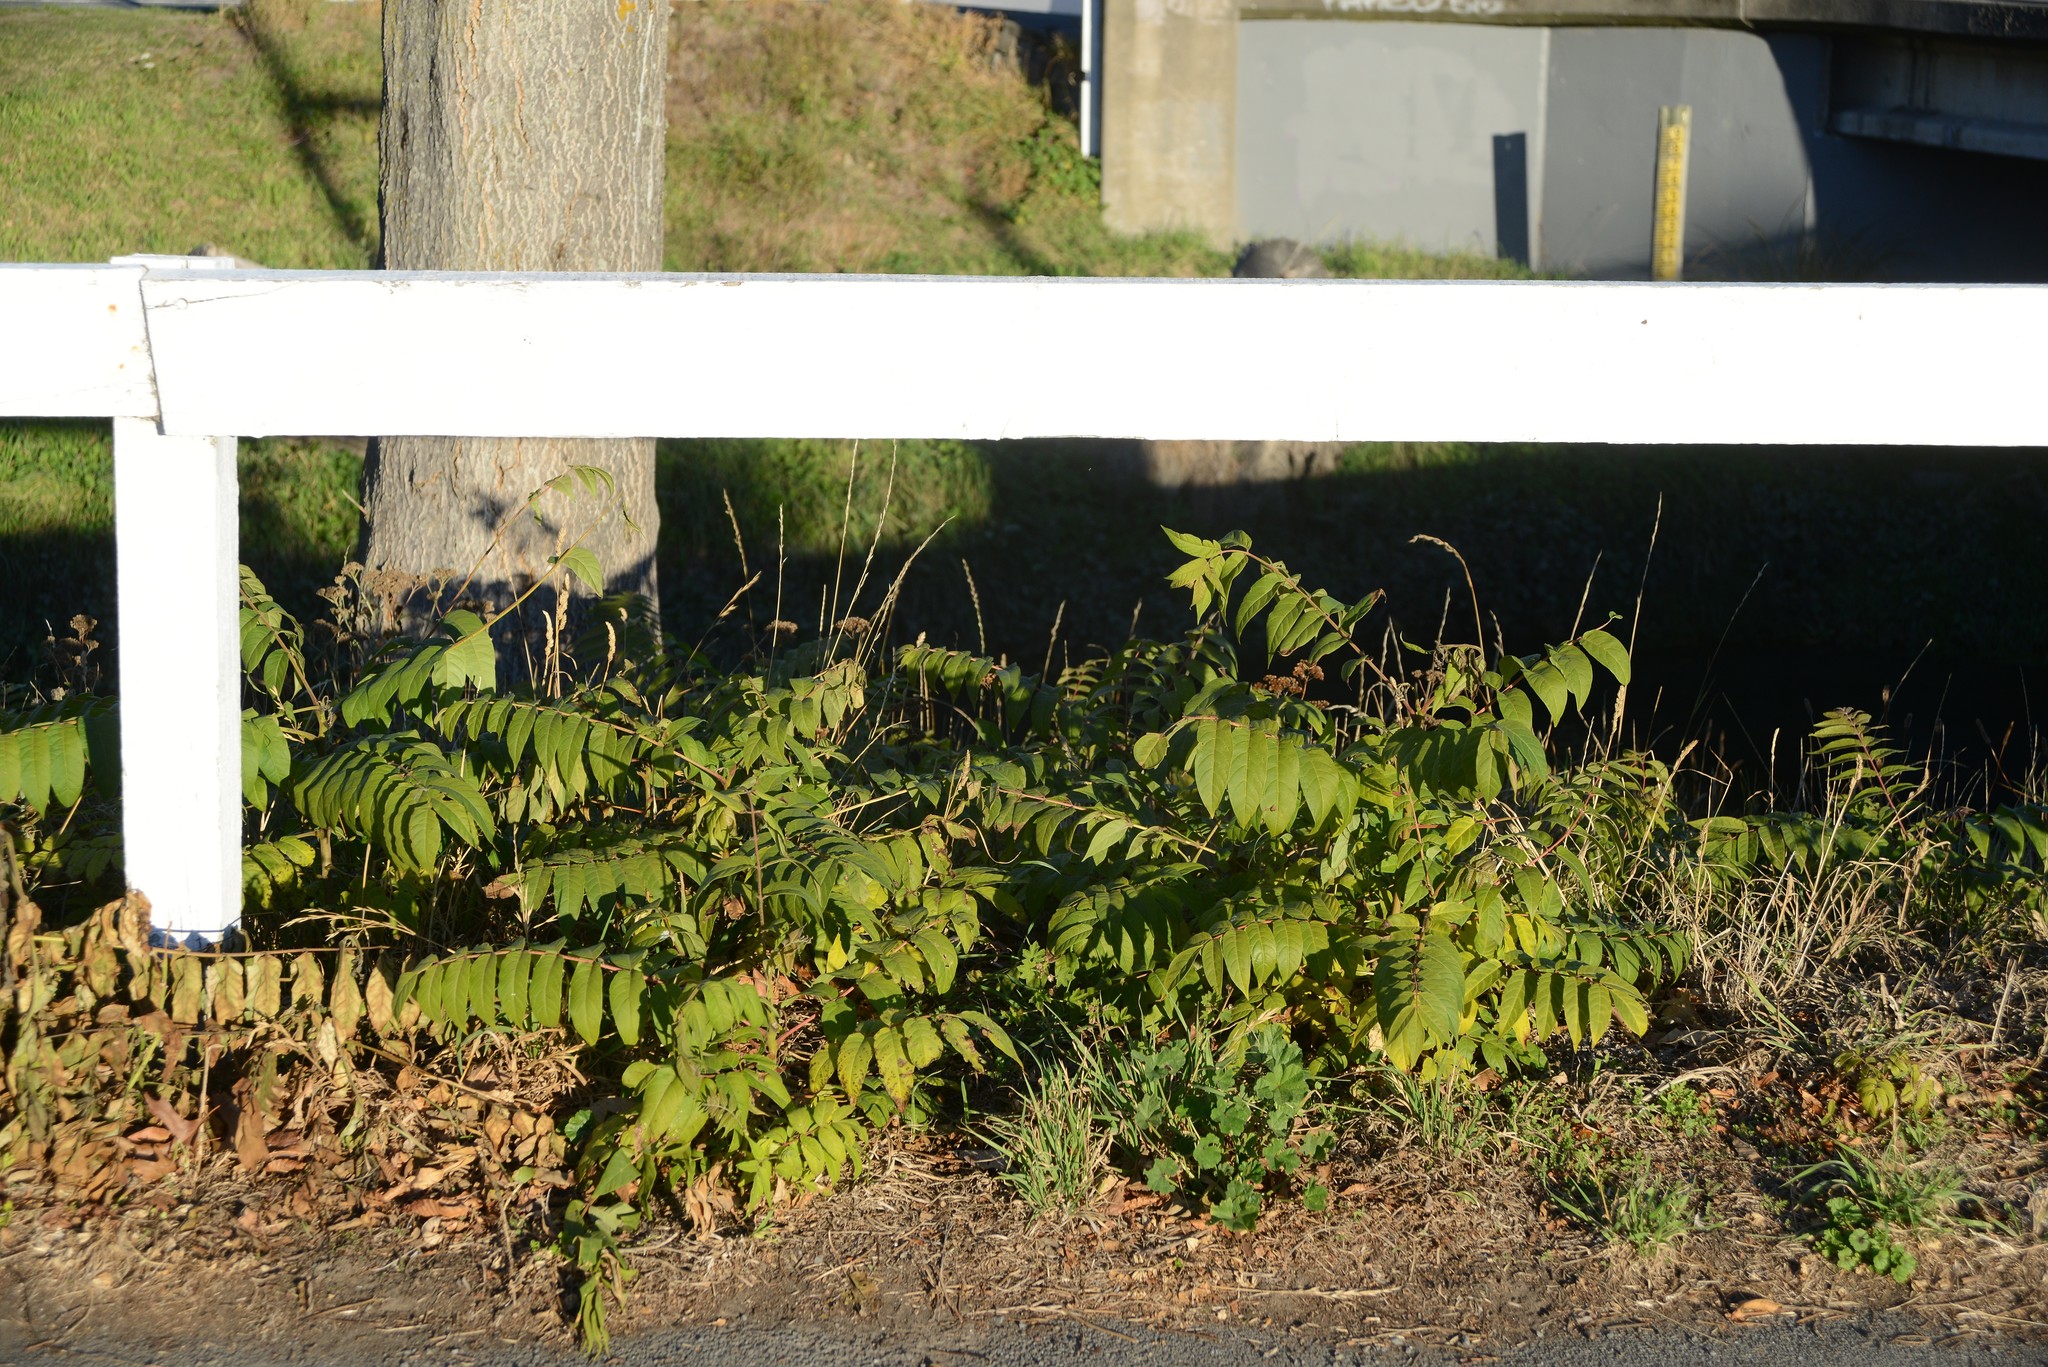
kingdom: Plantae
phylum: Tracheophyta
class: Magnoliopsida
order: Sapindales
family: Simaroubaceae
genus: Ailanthus
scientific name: Ailanthus altissima
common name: Tree-of-heaven
